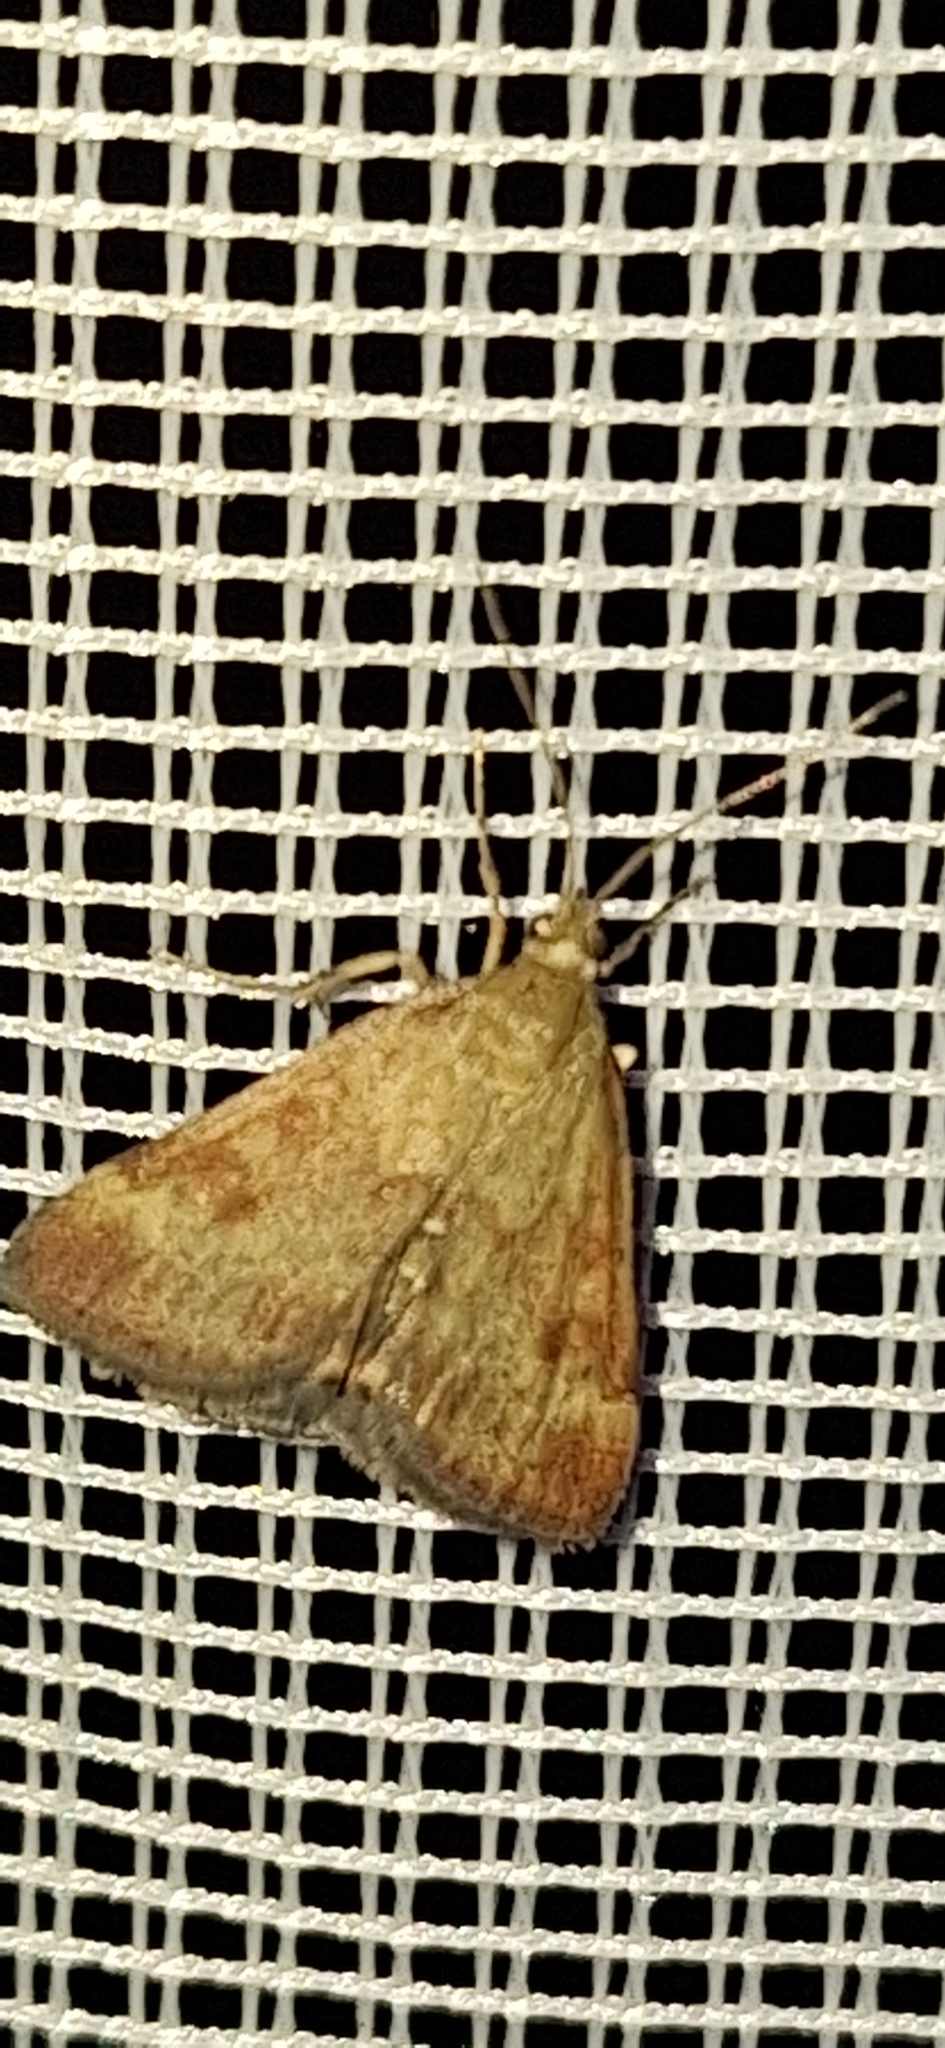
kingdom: Animalia
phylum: Arthropoda
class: Insecta
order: Lepidoptera
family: Crambidae
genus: Pyrausta
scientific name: Pyrausta despicata
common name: Straw-barred pearl
